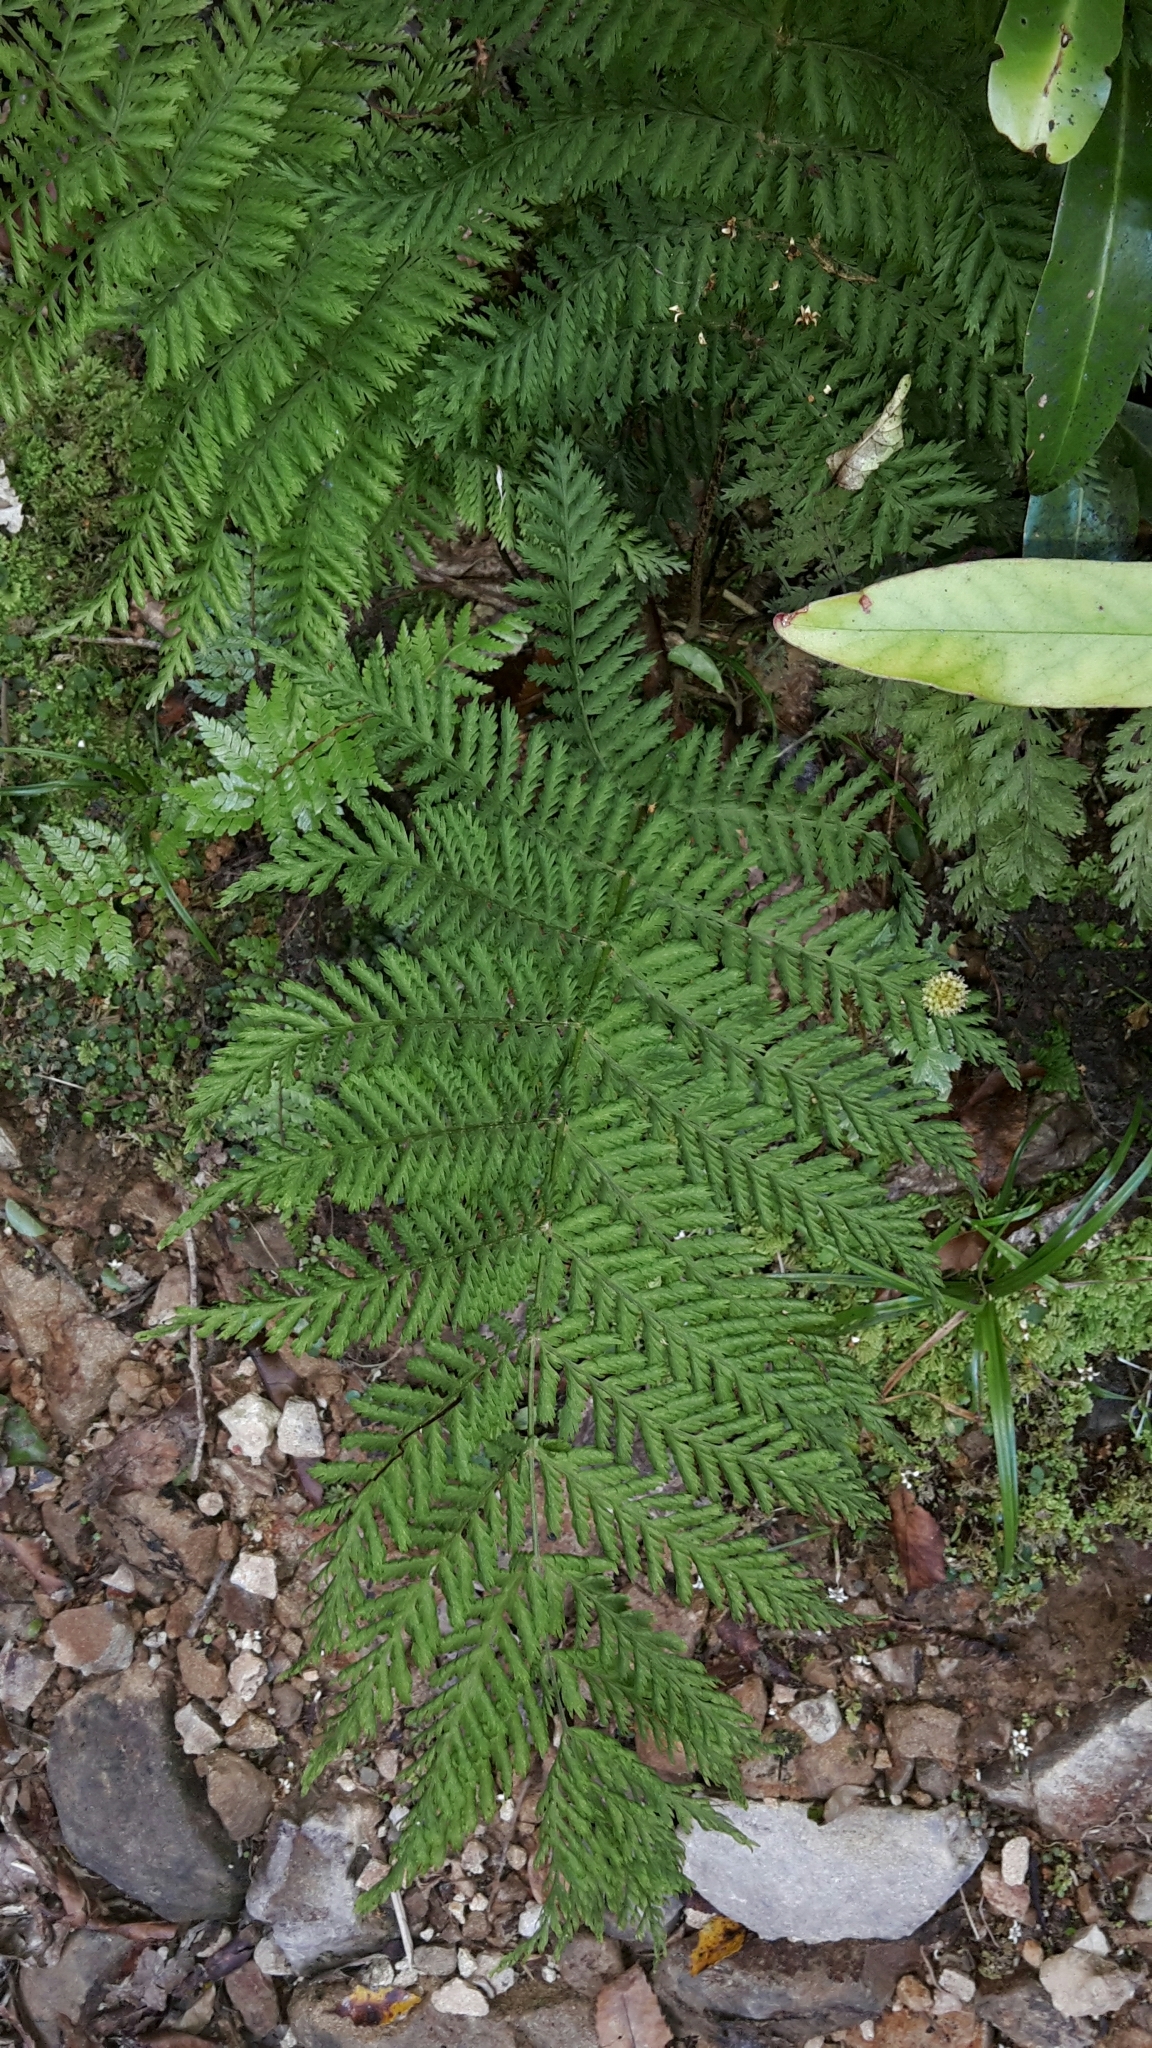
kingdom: Plantae
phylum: Tracheophyta
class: Polypodiopsida
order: Osmundales
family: Osmundaceae
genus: Leptopteris
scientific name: Leptopteris hymenophylloides
